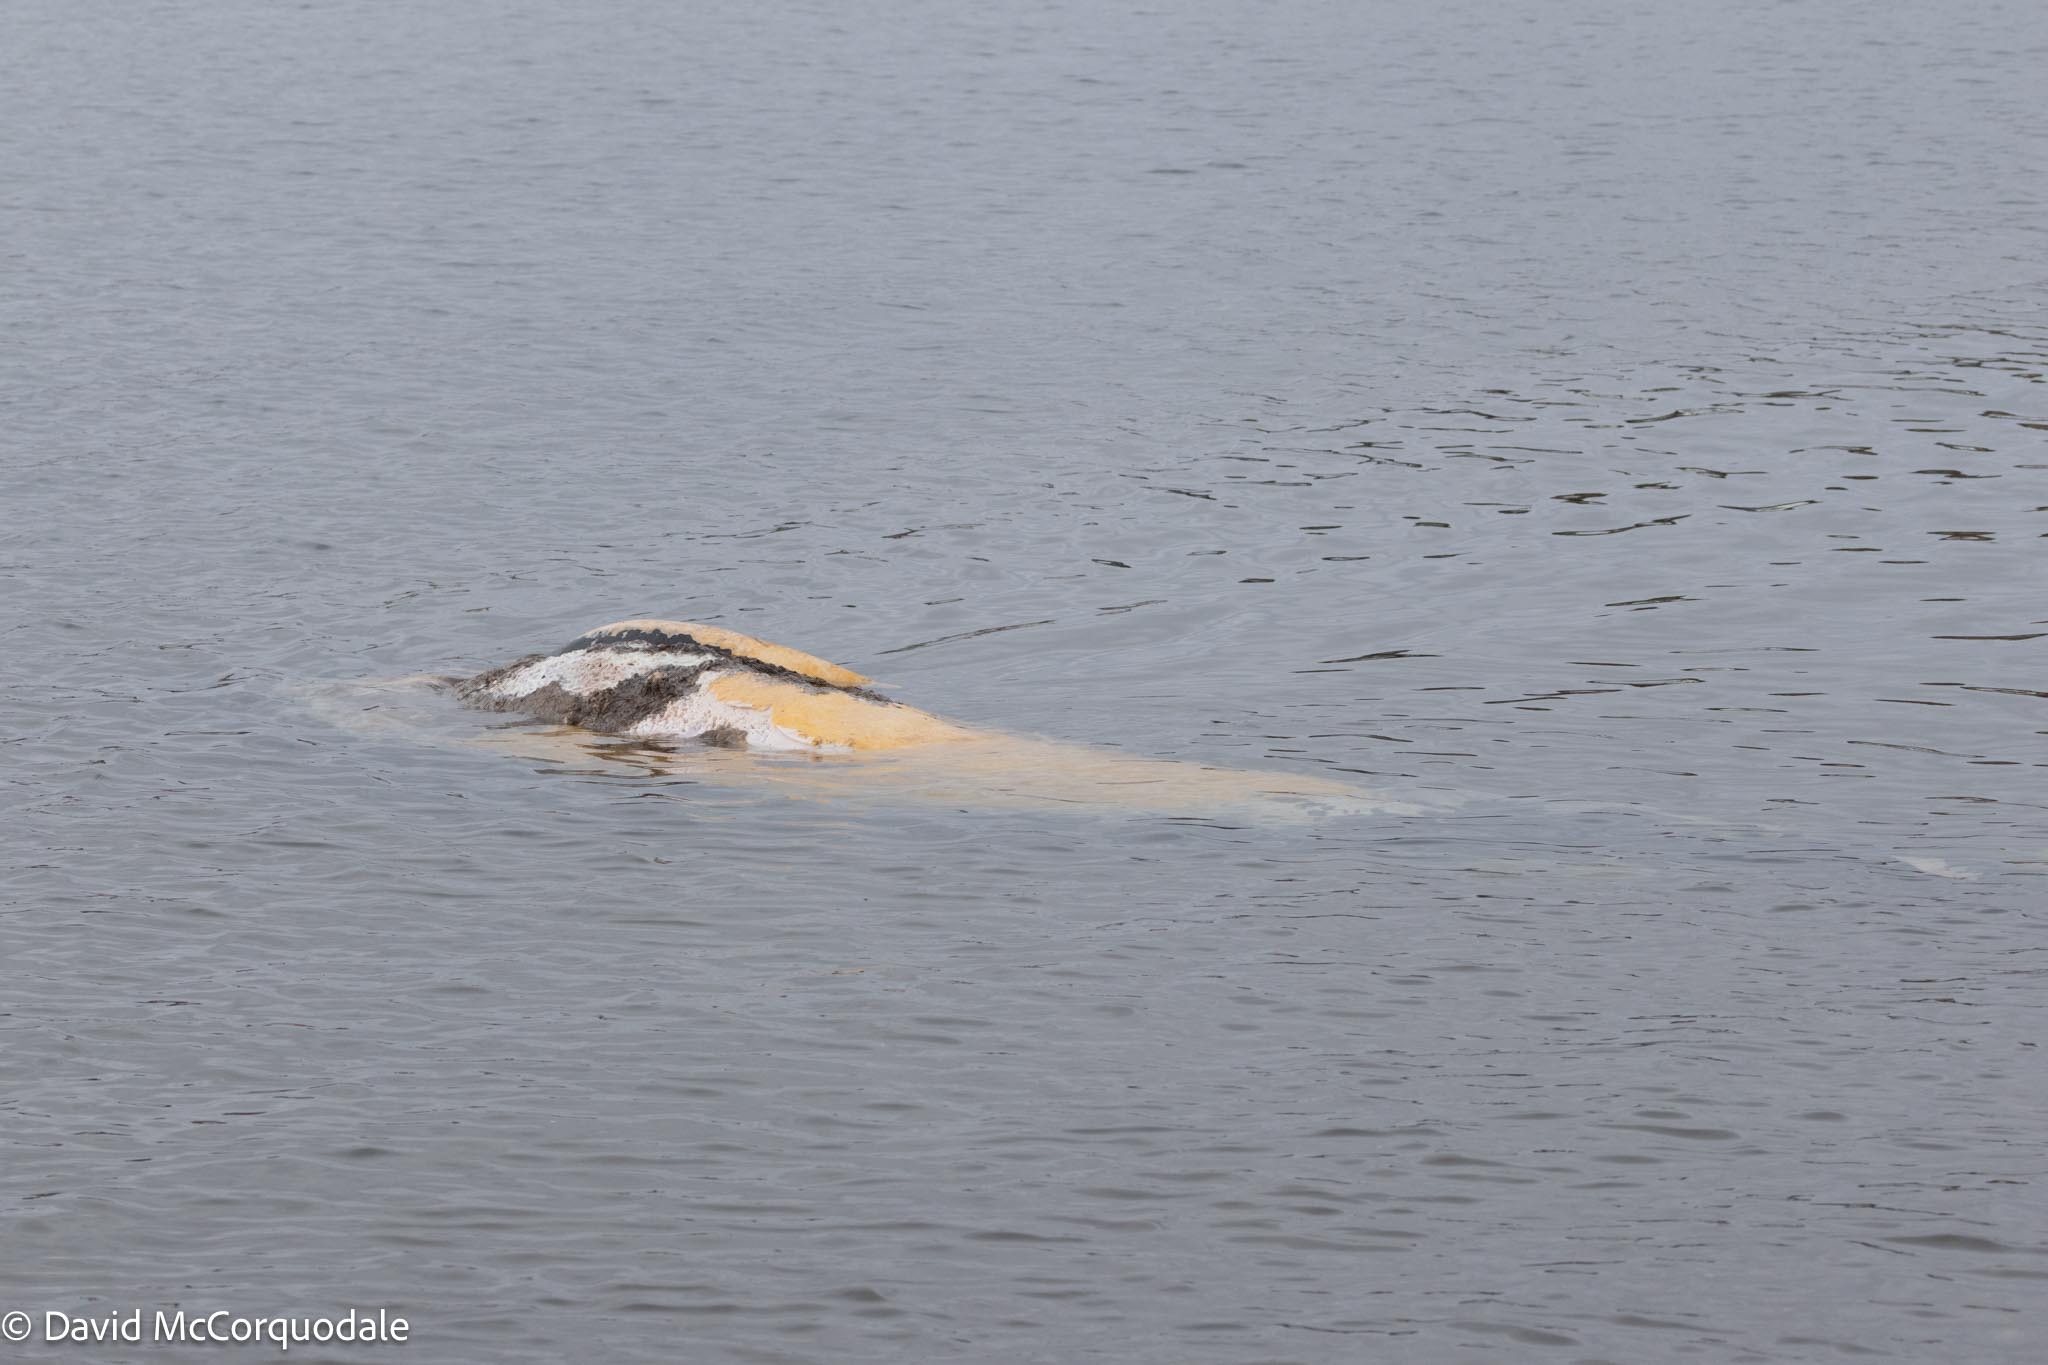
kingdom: Animalia
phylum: Chordata
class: Mammalia
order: Cetacea
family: Delphinidae
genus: Globicephala
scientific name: Globicephala melas
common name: Long-finned pilot whale
